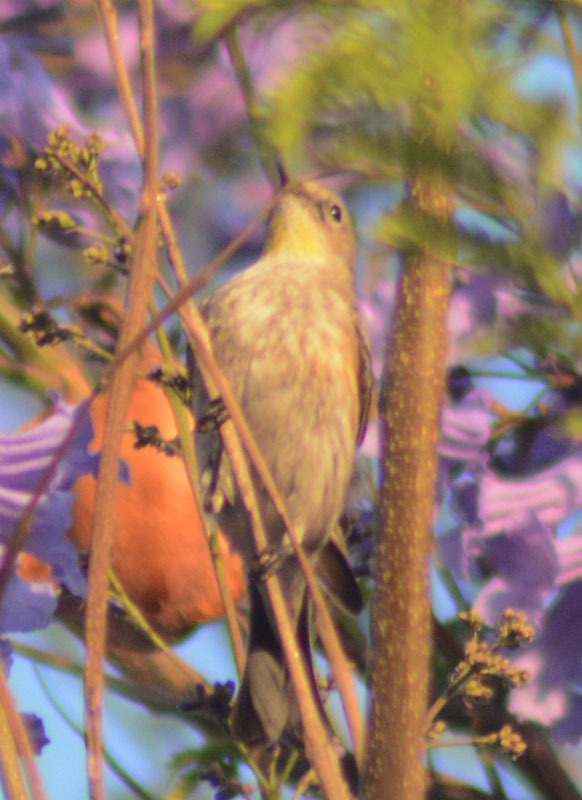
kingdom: Animalia
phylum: Chordata
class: Aves
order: Passeriformes
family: Parulidae
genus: Setophaga
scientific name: Setophaga auduboni
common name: Audubon's warbler
